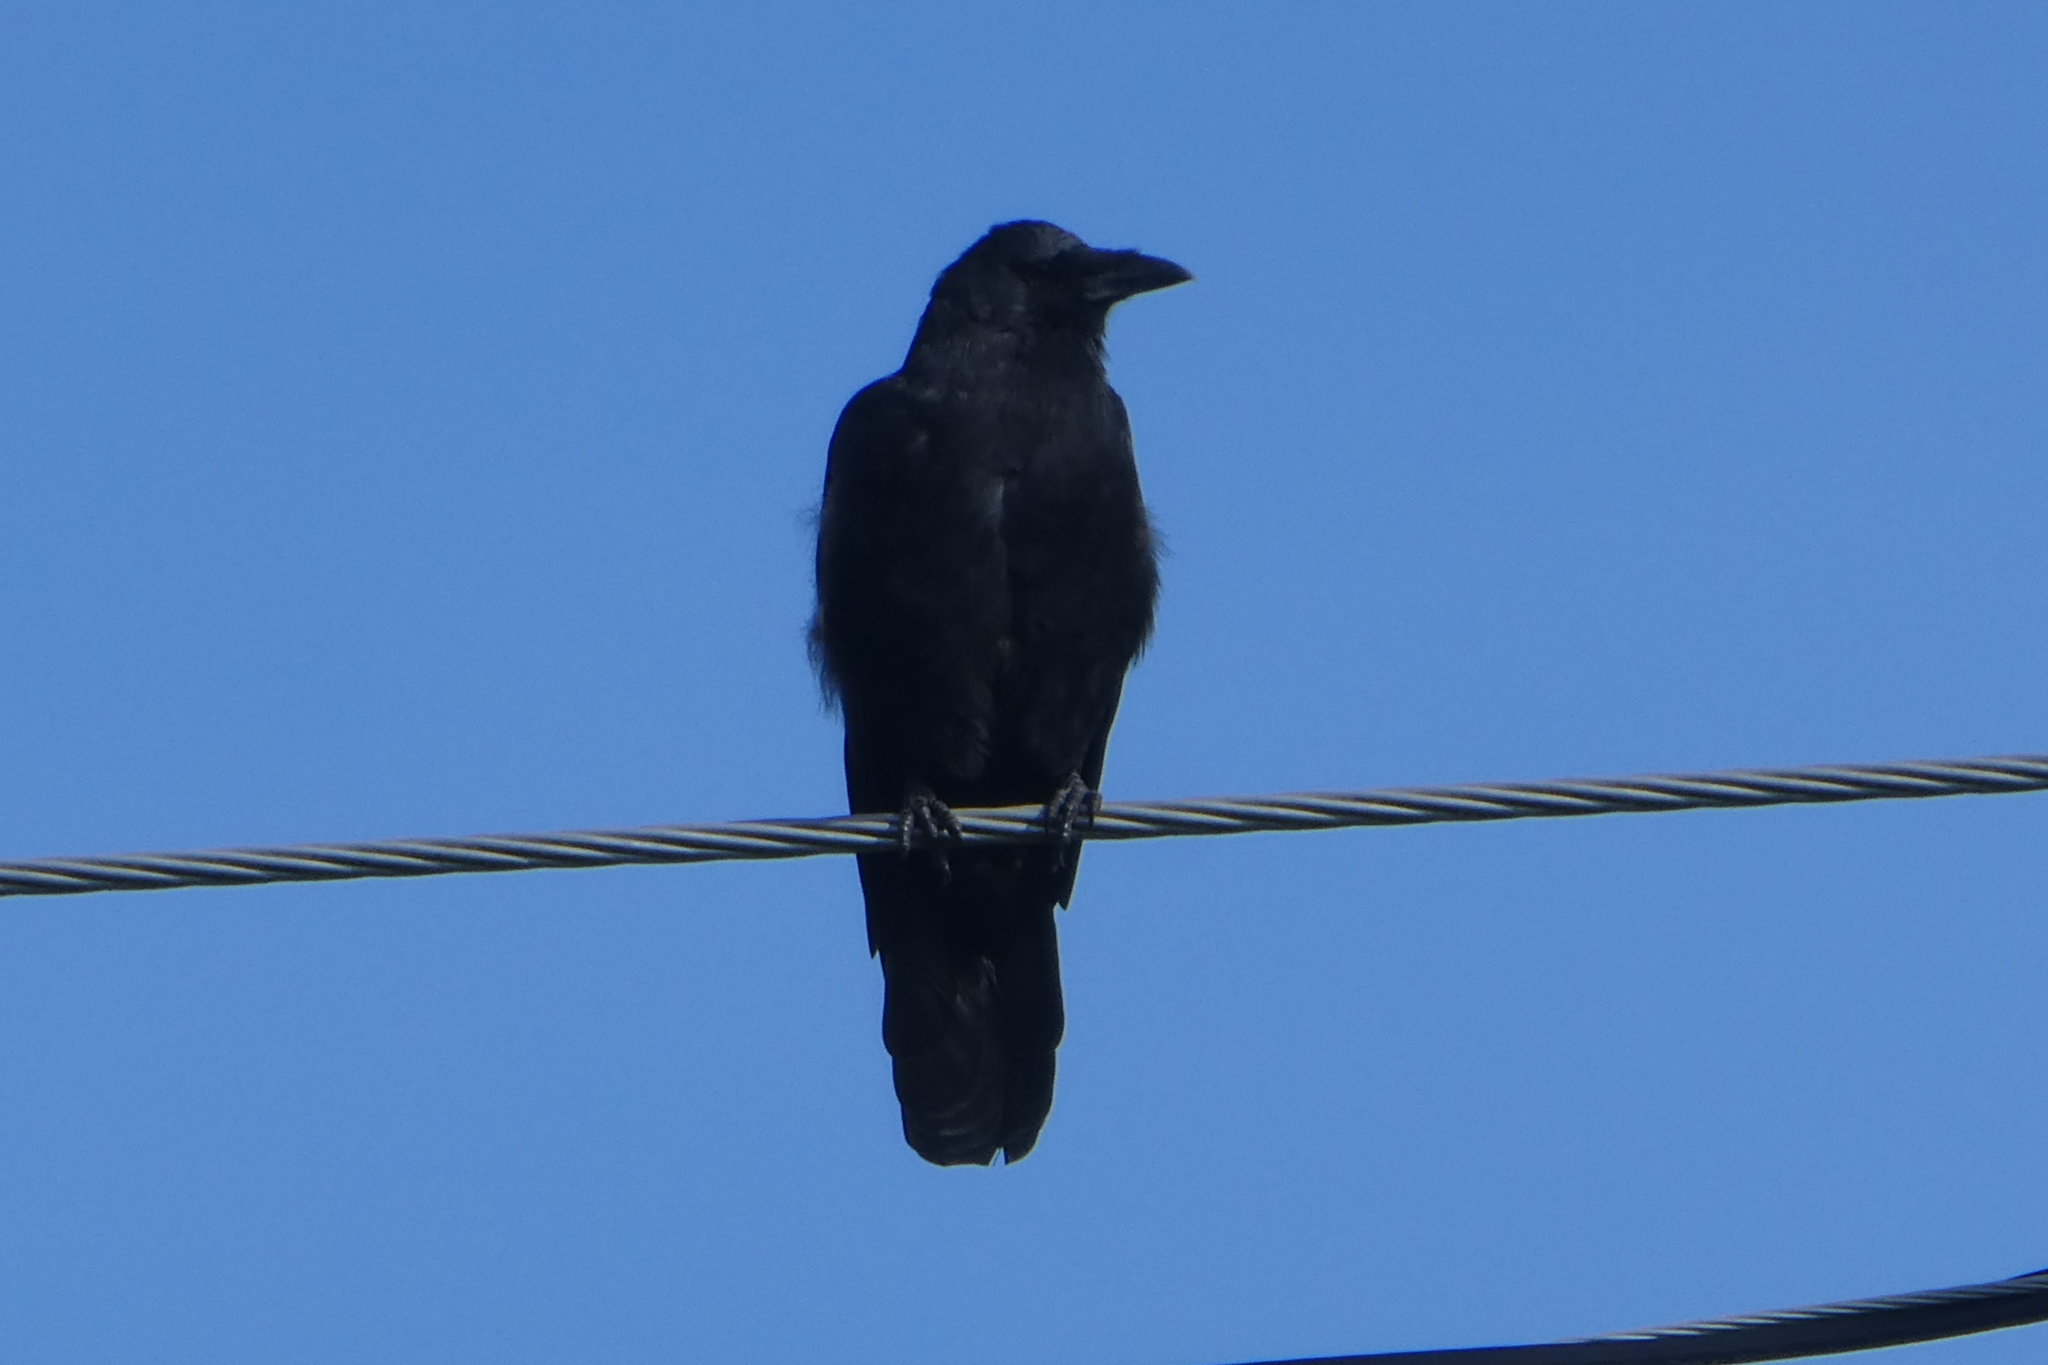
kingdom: Animalia
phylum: Chordata
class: Aves
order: Passeriformes
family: Corvidae
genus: Corvus
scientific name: Corvus brachyrhynchos
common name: American crow
